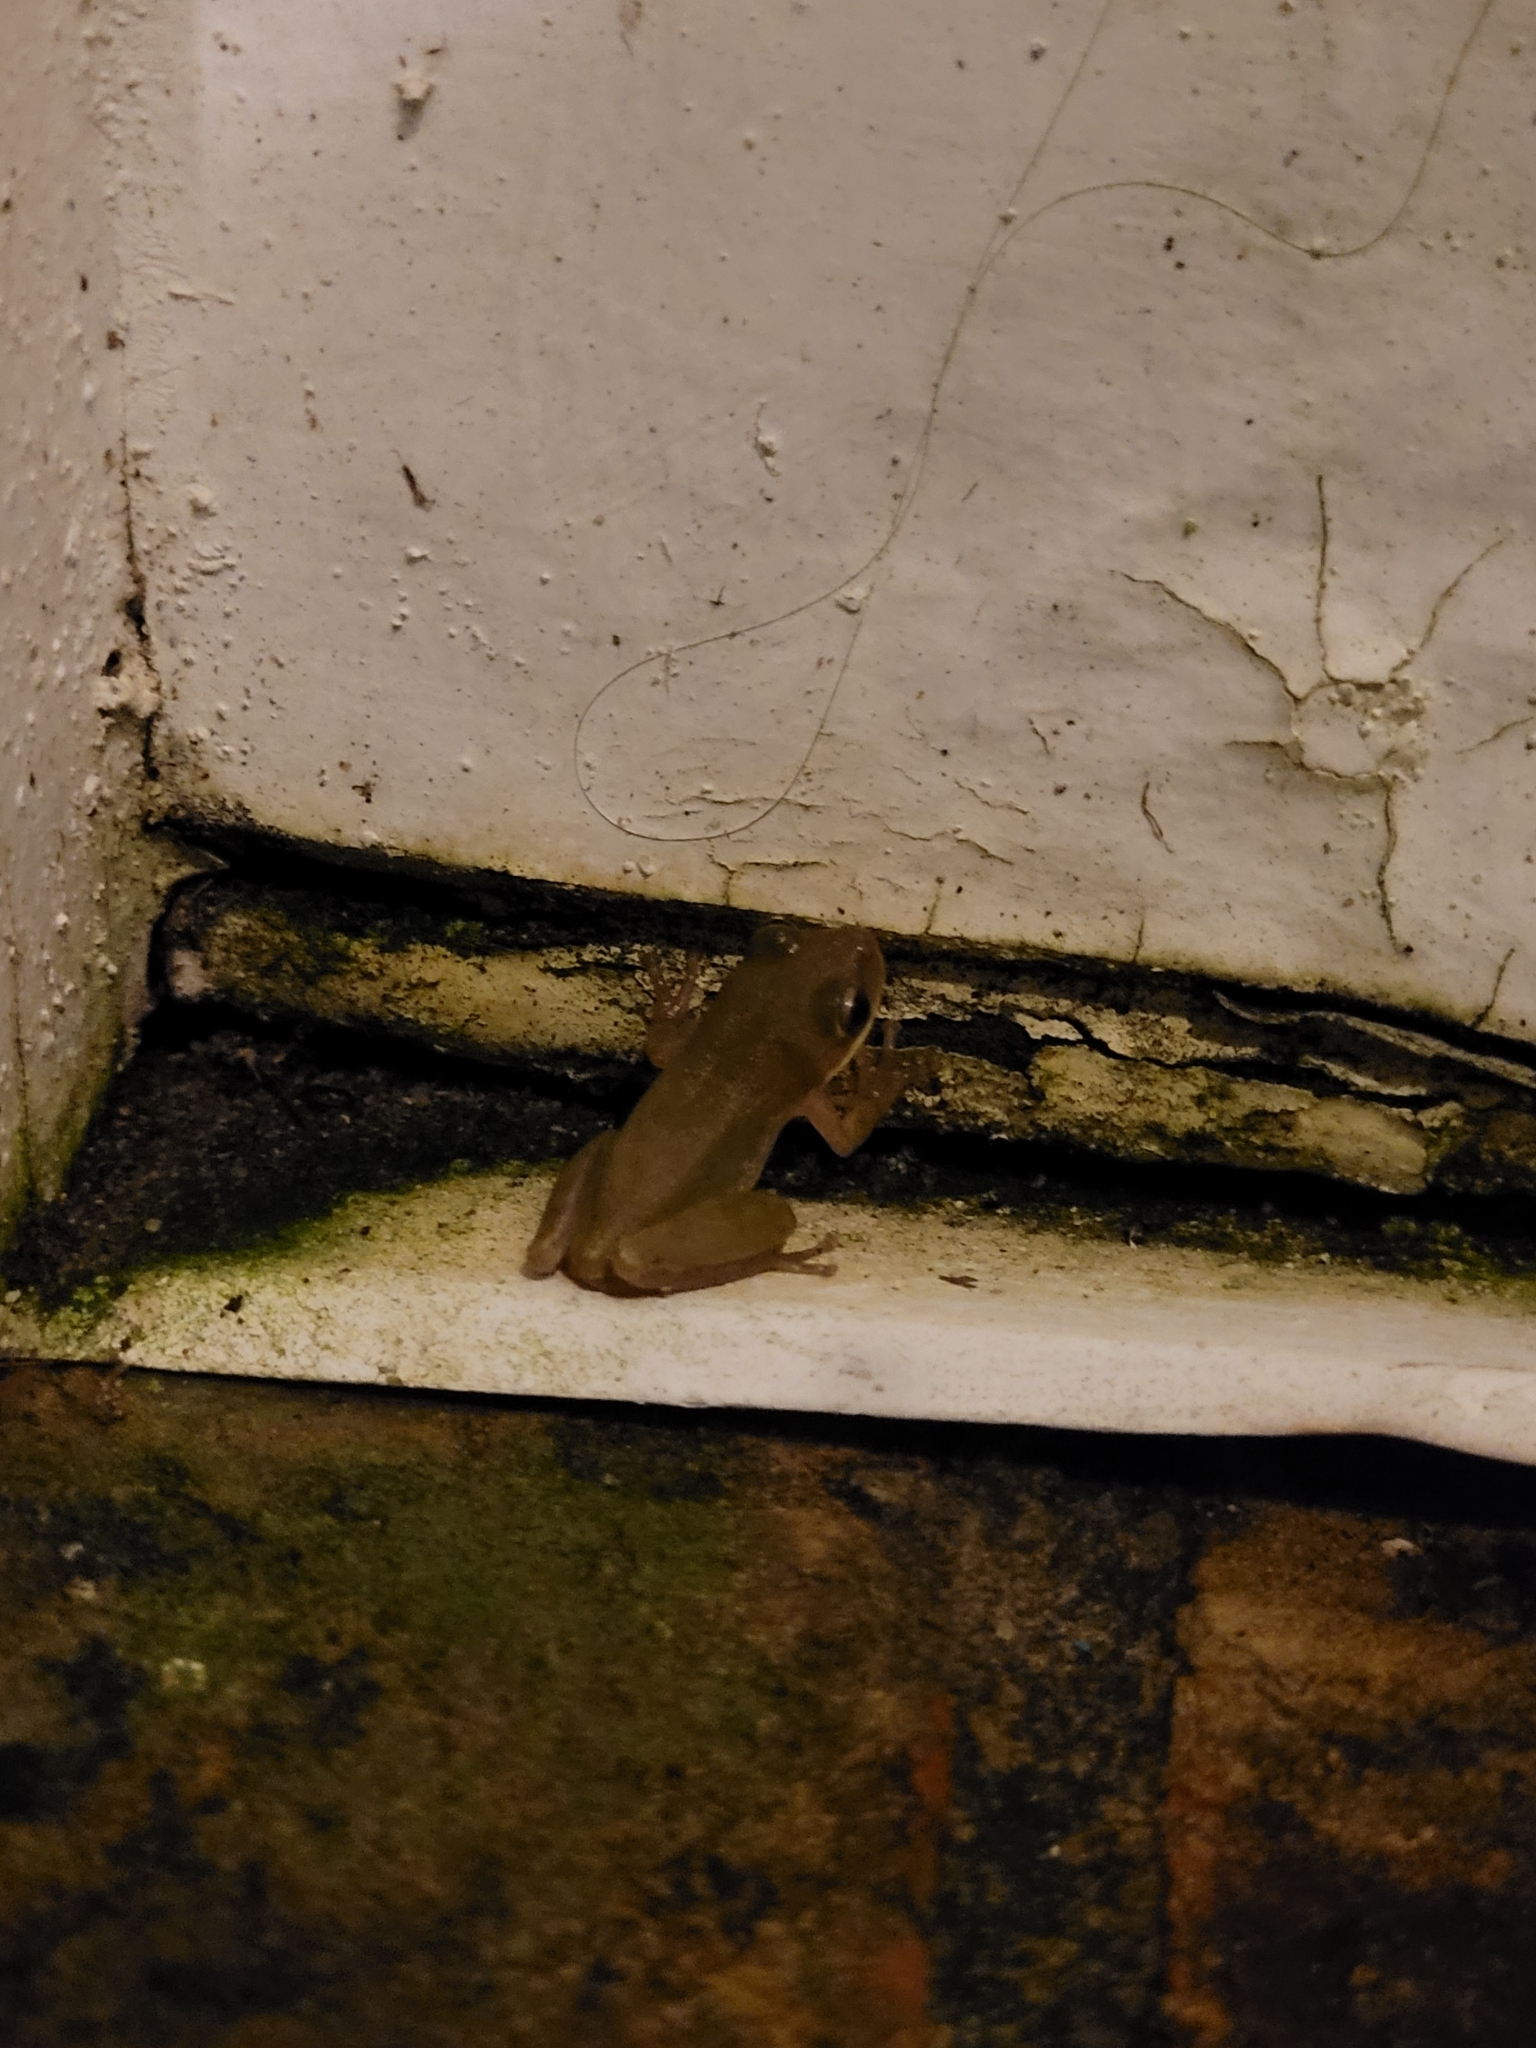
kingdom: Animalia
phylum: Chordata
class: Amphibia
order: Anura
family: Hylidae
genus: Dryophytes
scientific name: Dryophytes squirellus
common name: Squirrel treefrog
